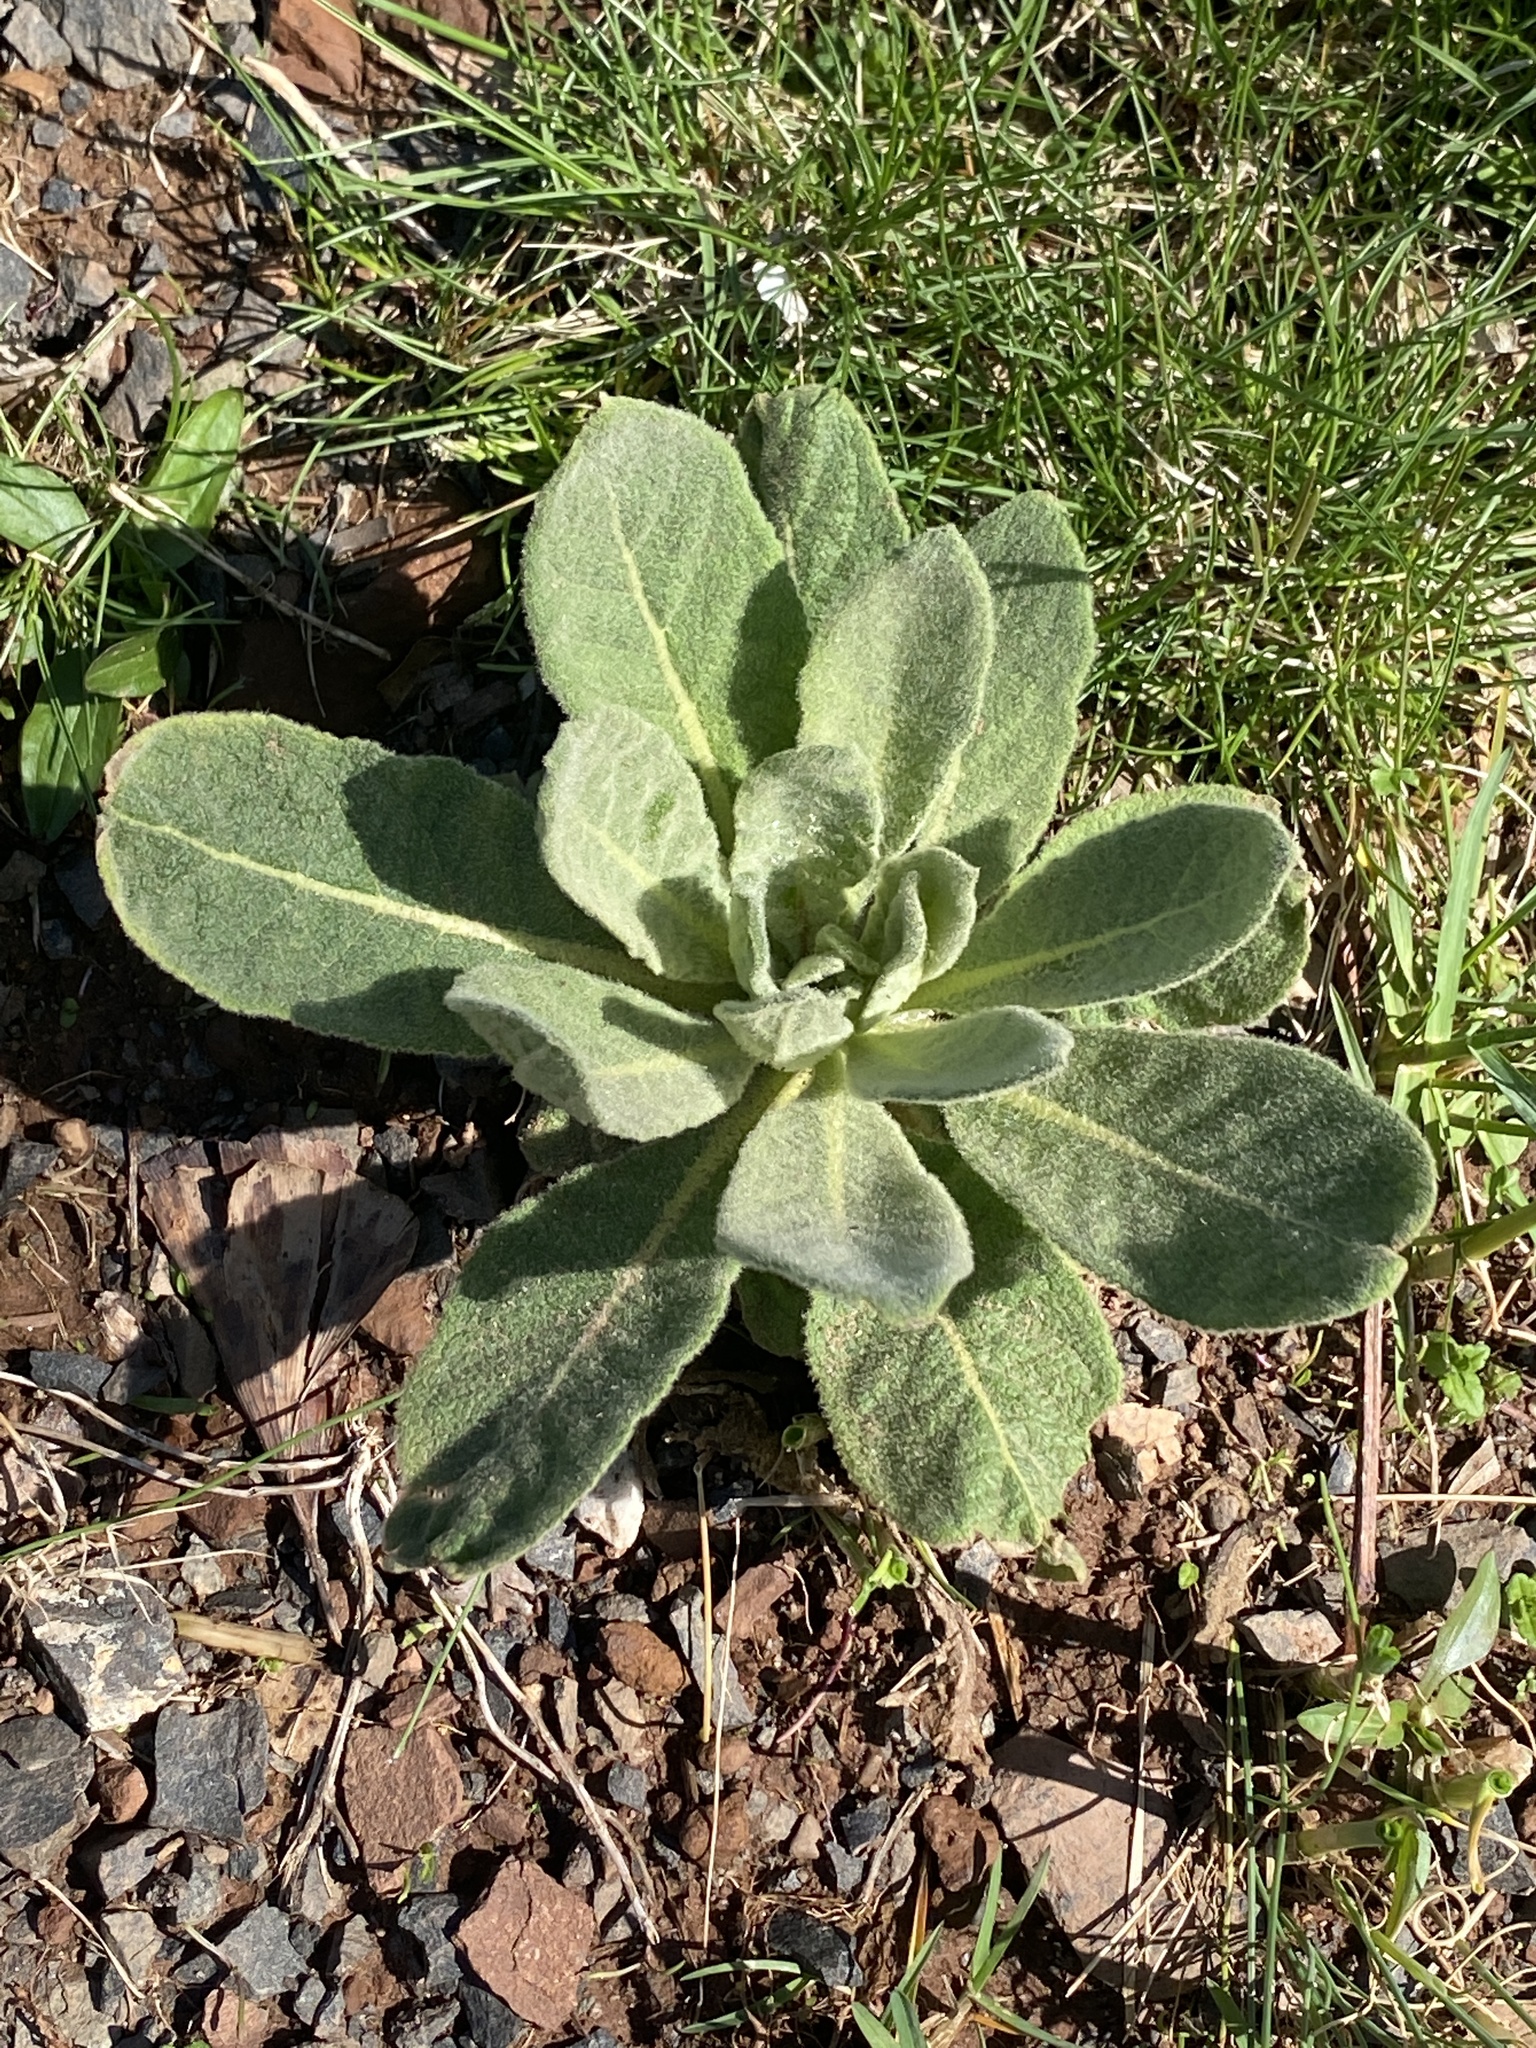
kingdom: Plantae
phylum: Tracheophyta
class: Magnoliopsida
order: Lamiales
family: Scrophulariaceae
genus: Verbascum
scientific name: Verbascum thapsus
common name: Common mullein
